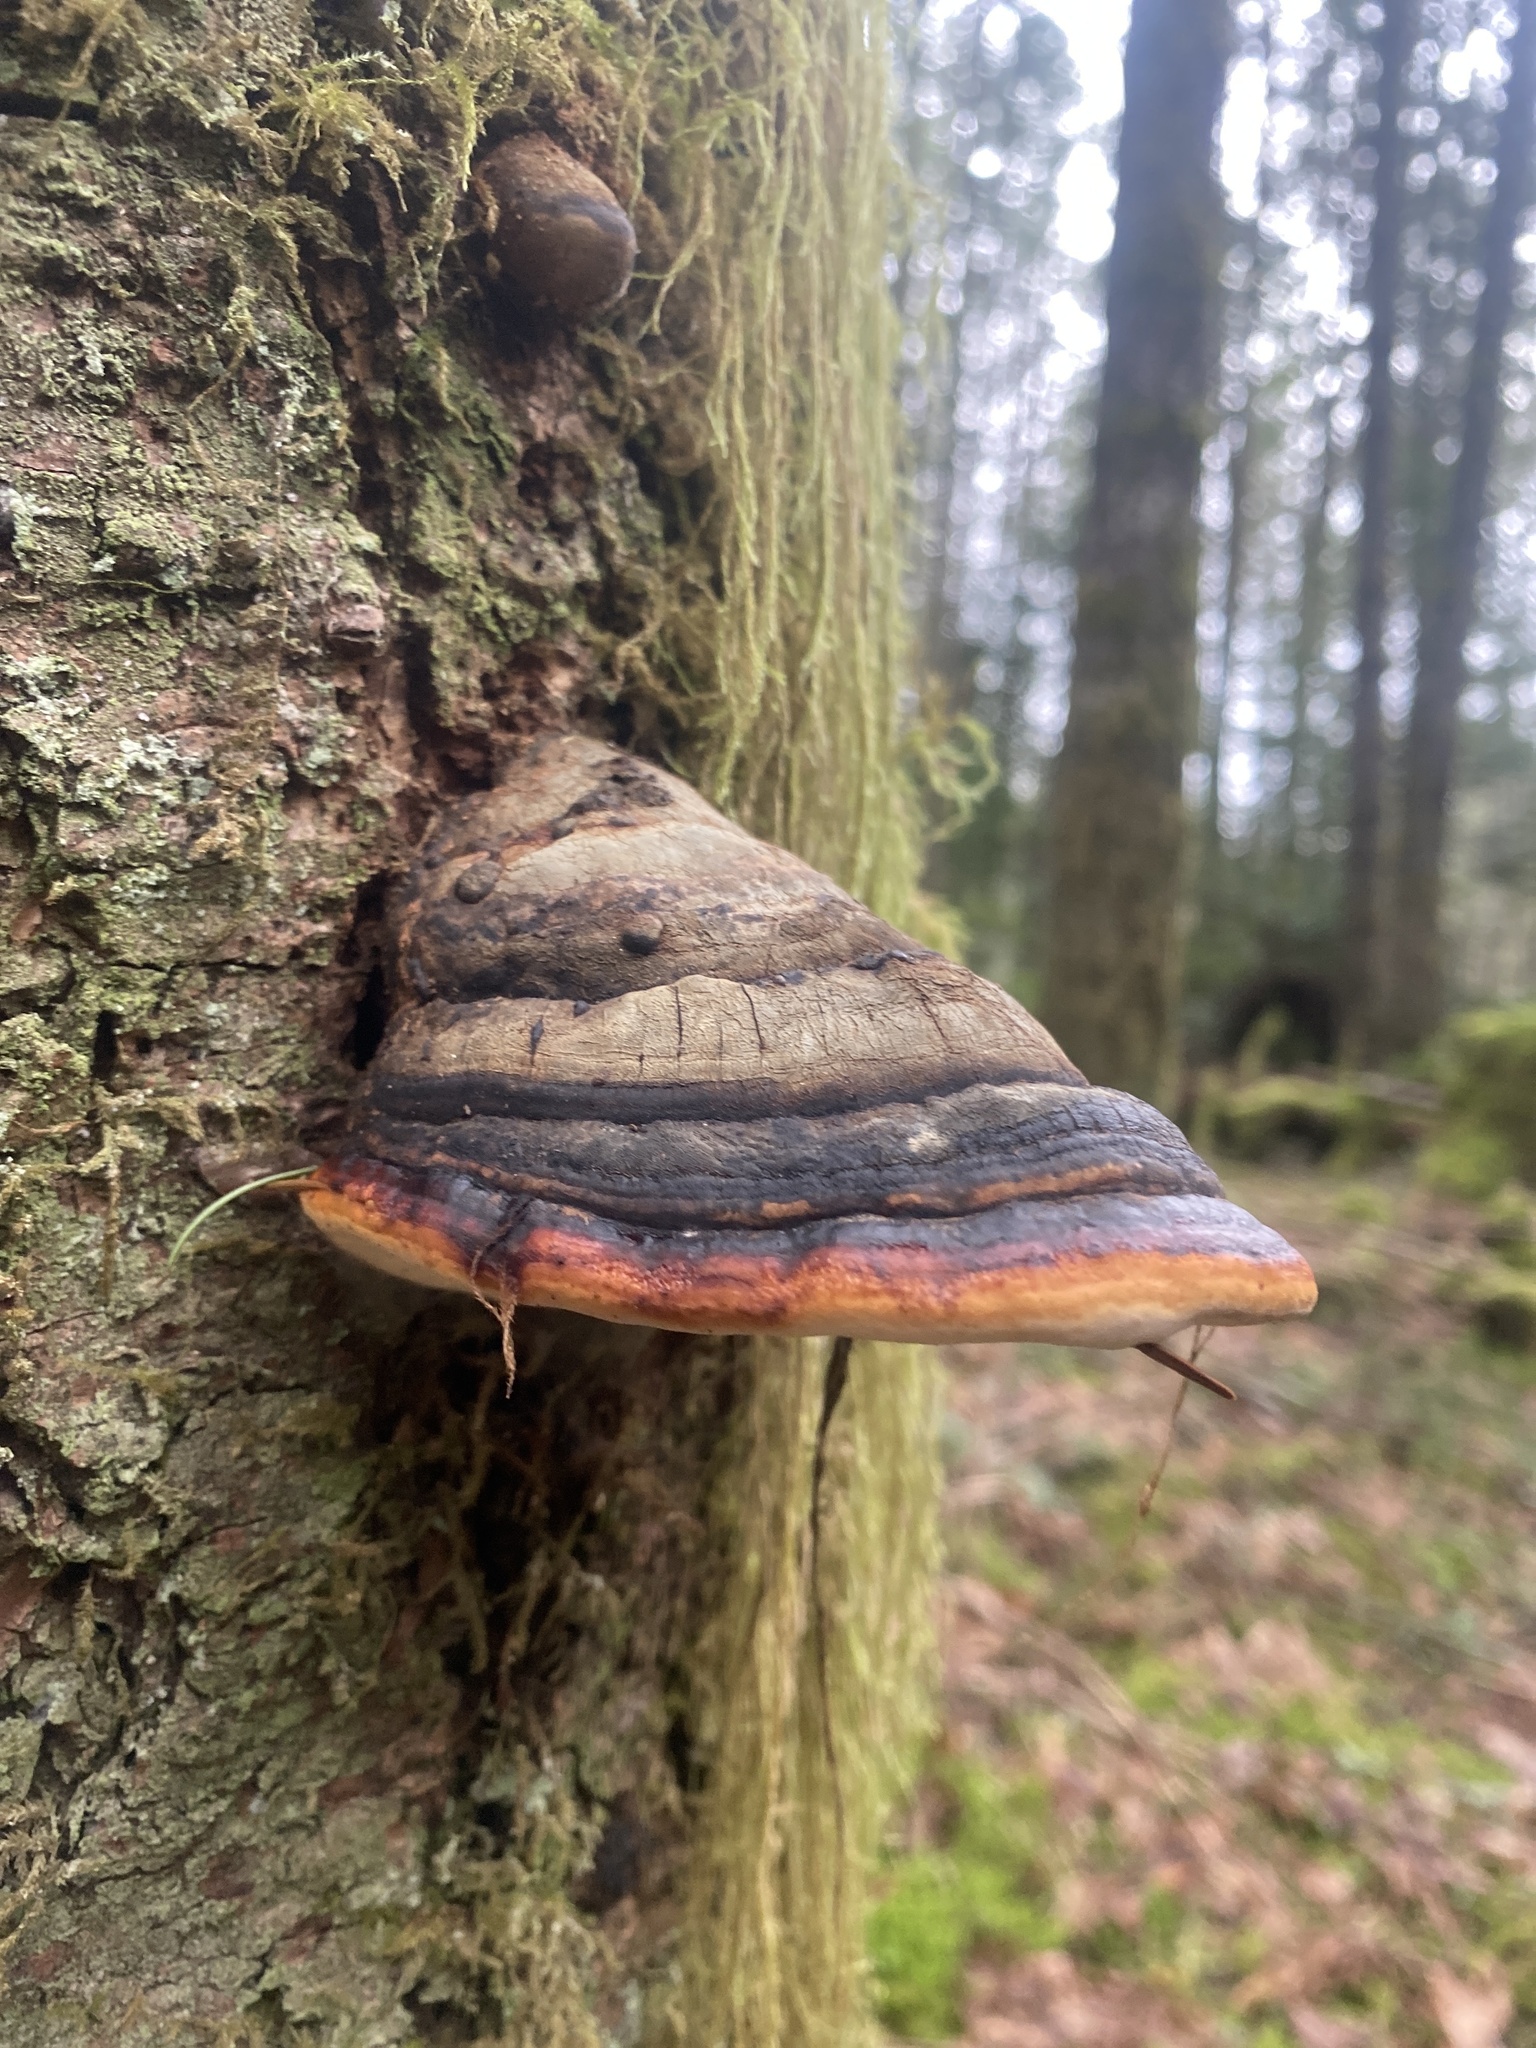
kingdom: Fungi
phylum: Basidiomycota
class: Agaricomycetes
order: Polyporales
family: Fomitopsidaceae
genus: Fomitopsis
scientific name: Fomitopsis mounceae
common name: Northern red belt
